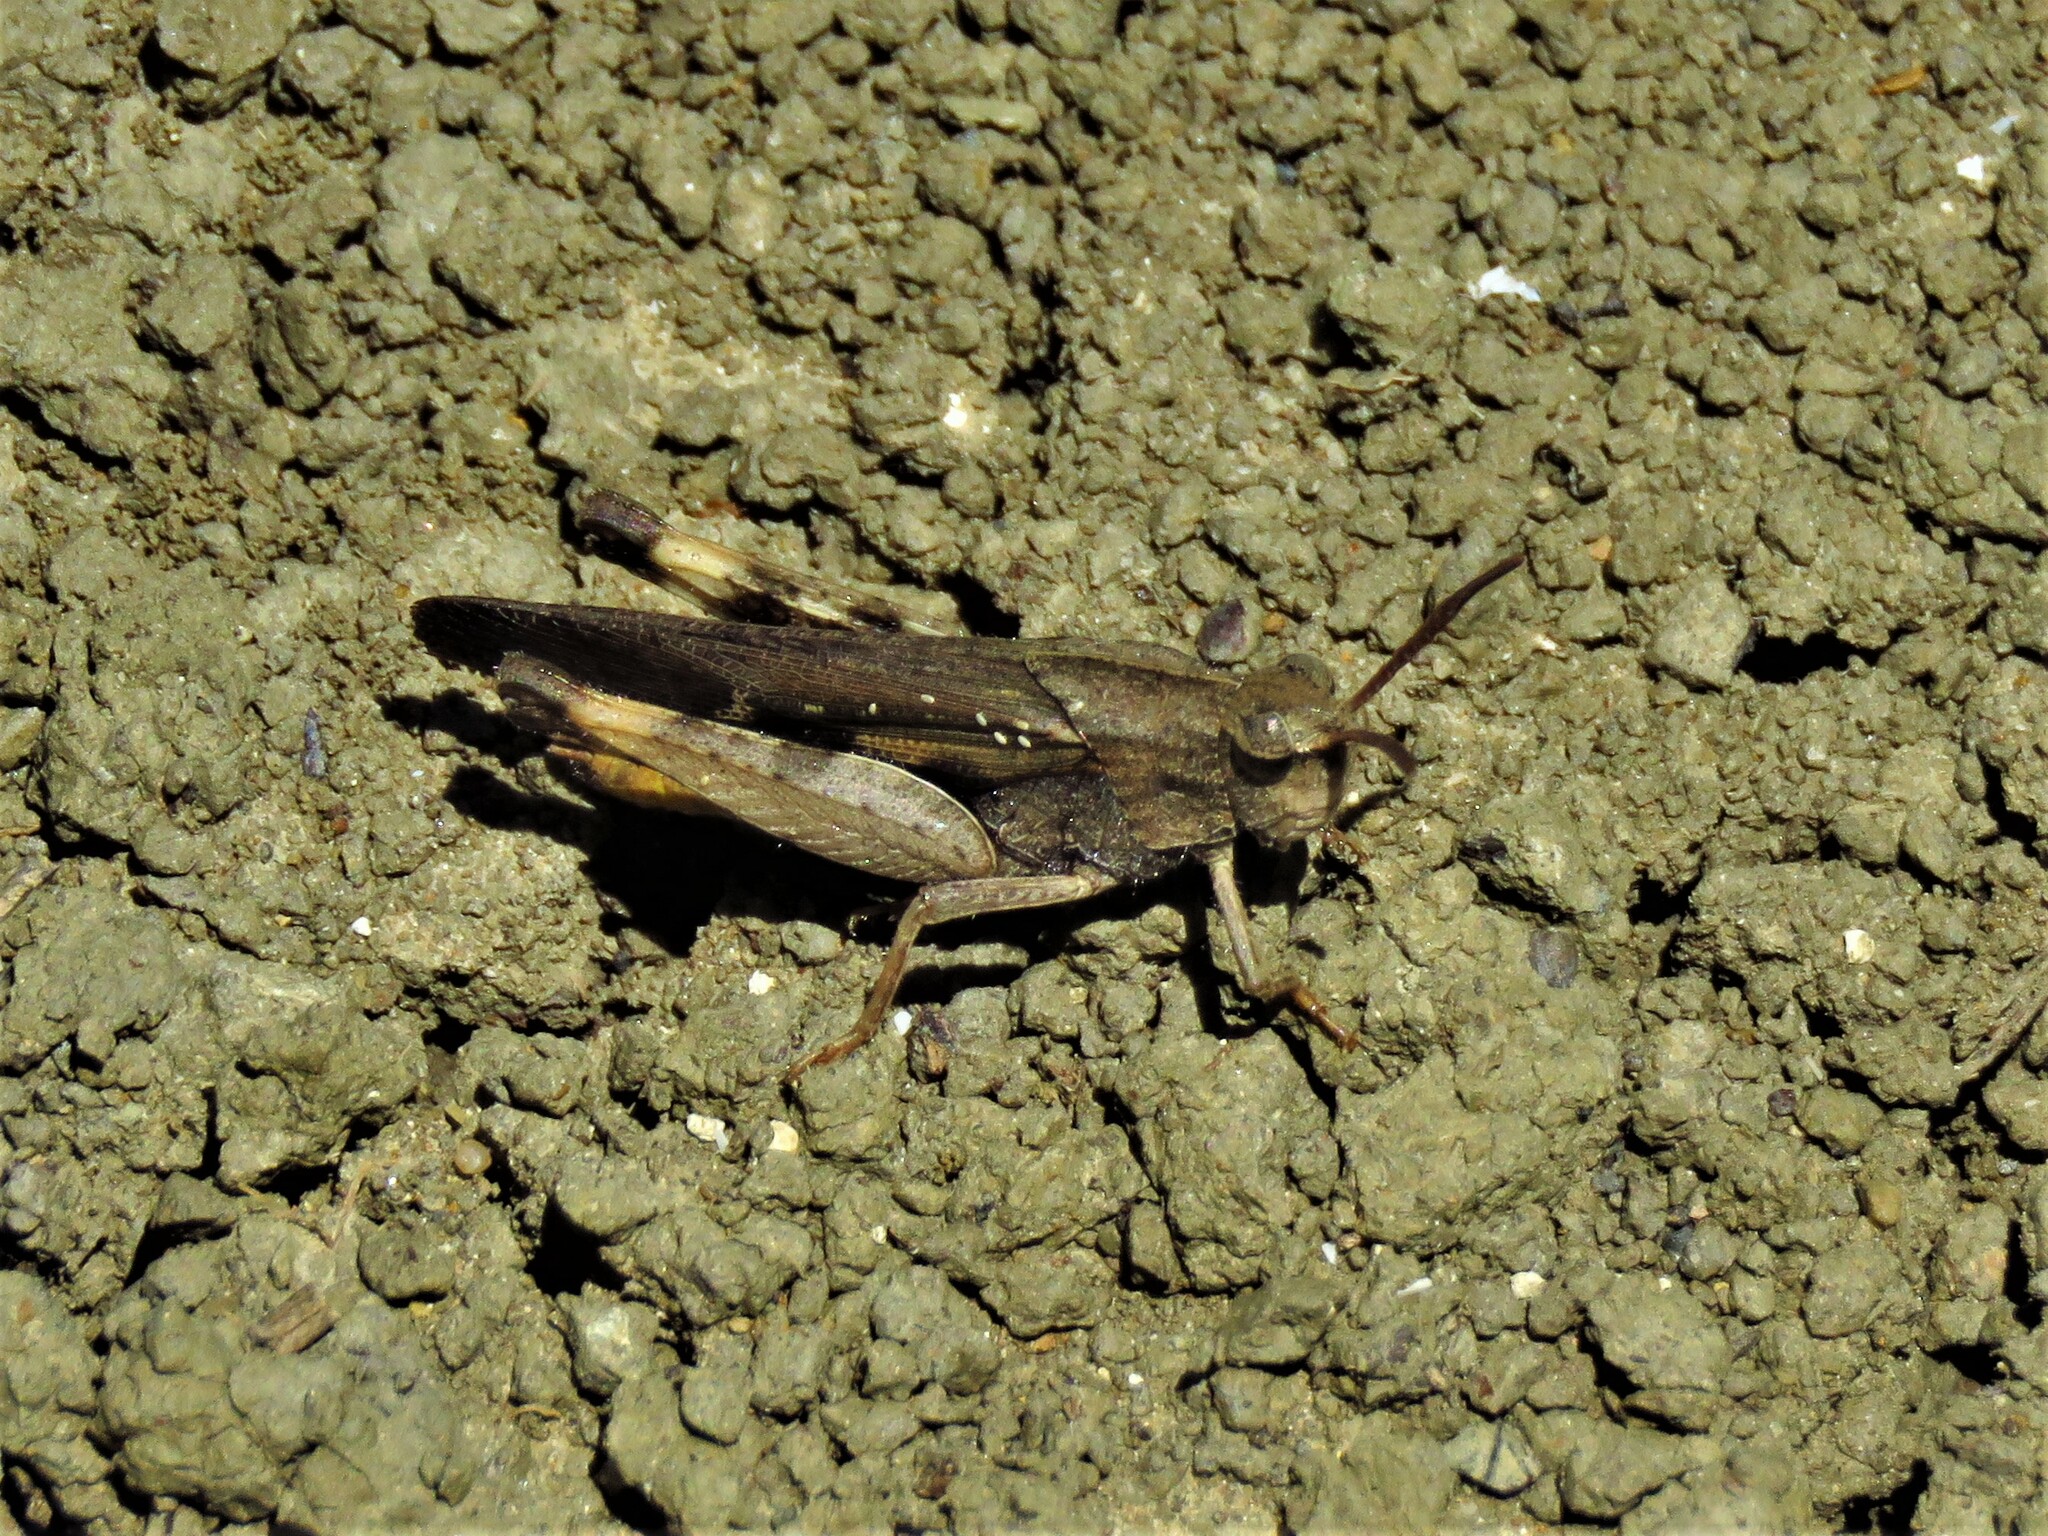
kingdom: Animalia
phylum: Arthropoda
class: Insecta
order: Orthoptera
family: Acrididae
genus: Chortophaga
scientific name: Chortophaga viridifasciata
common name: Green-striped grasshopper
